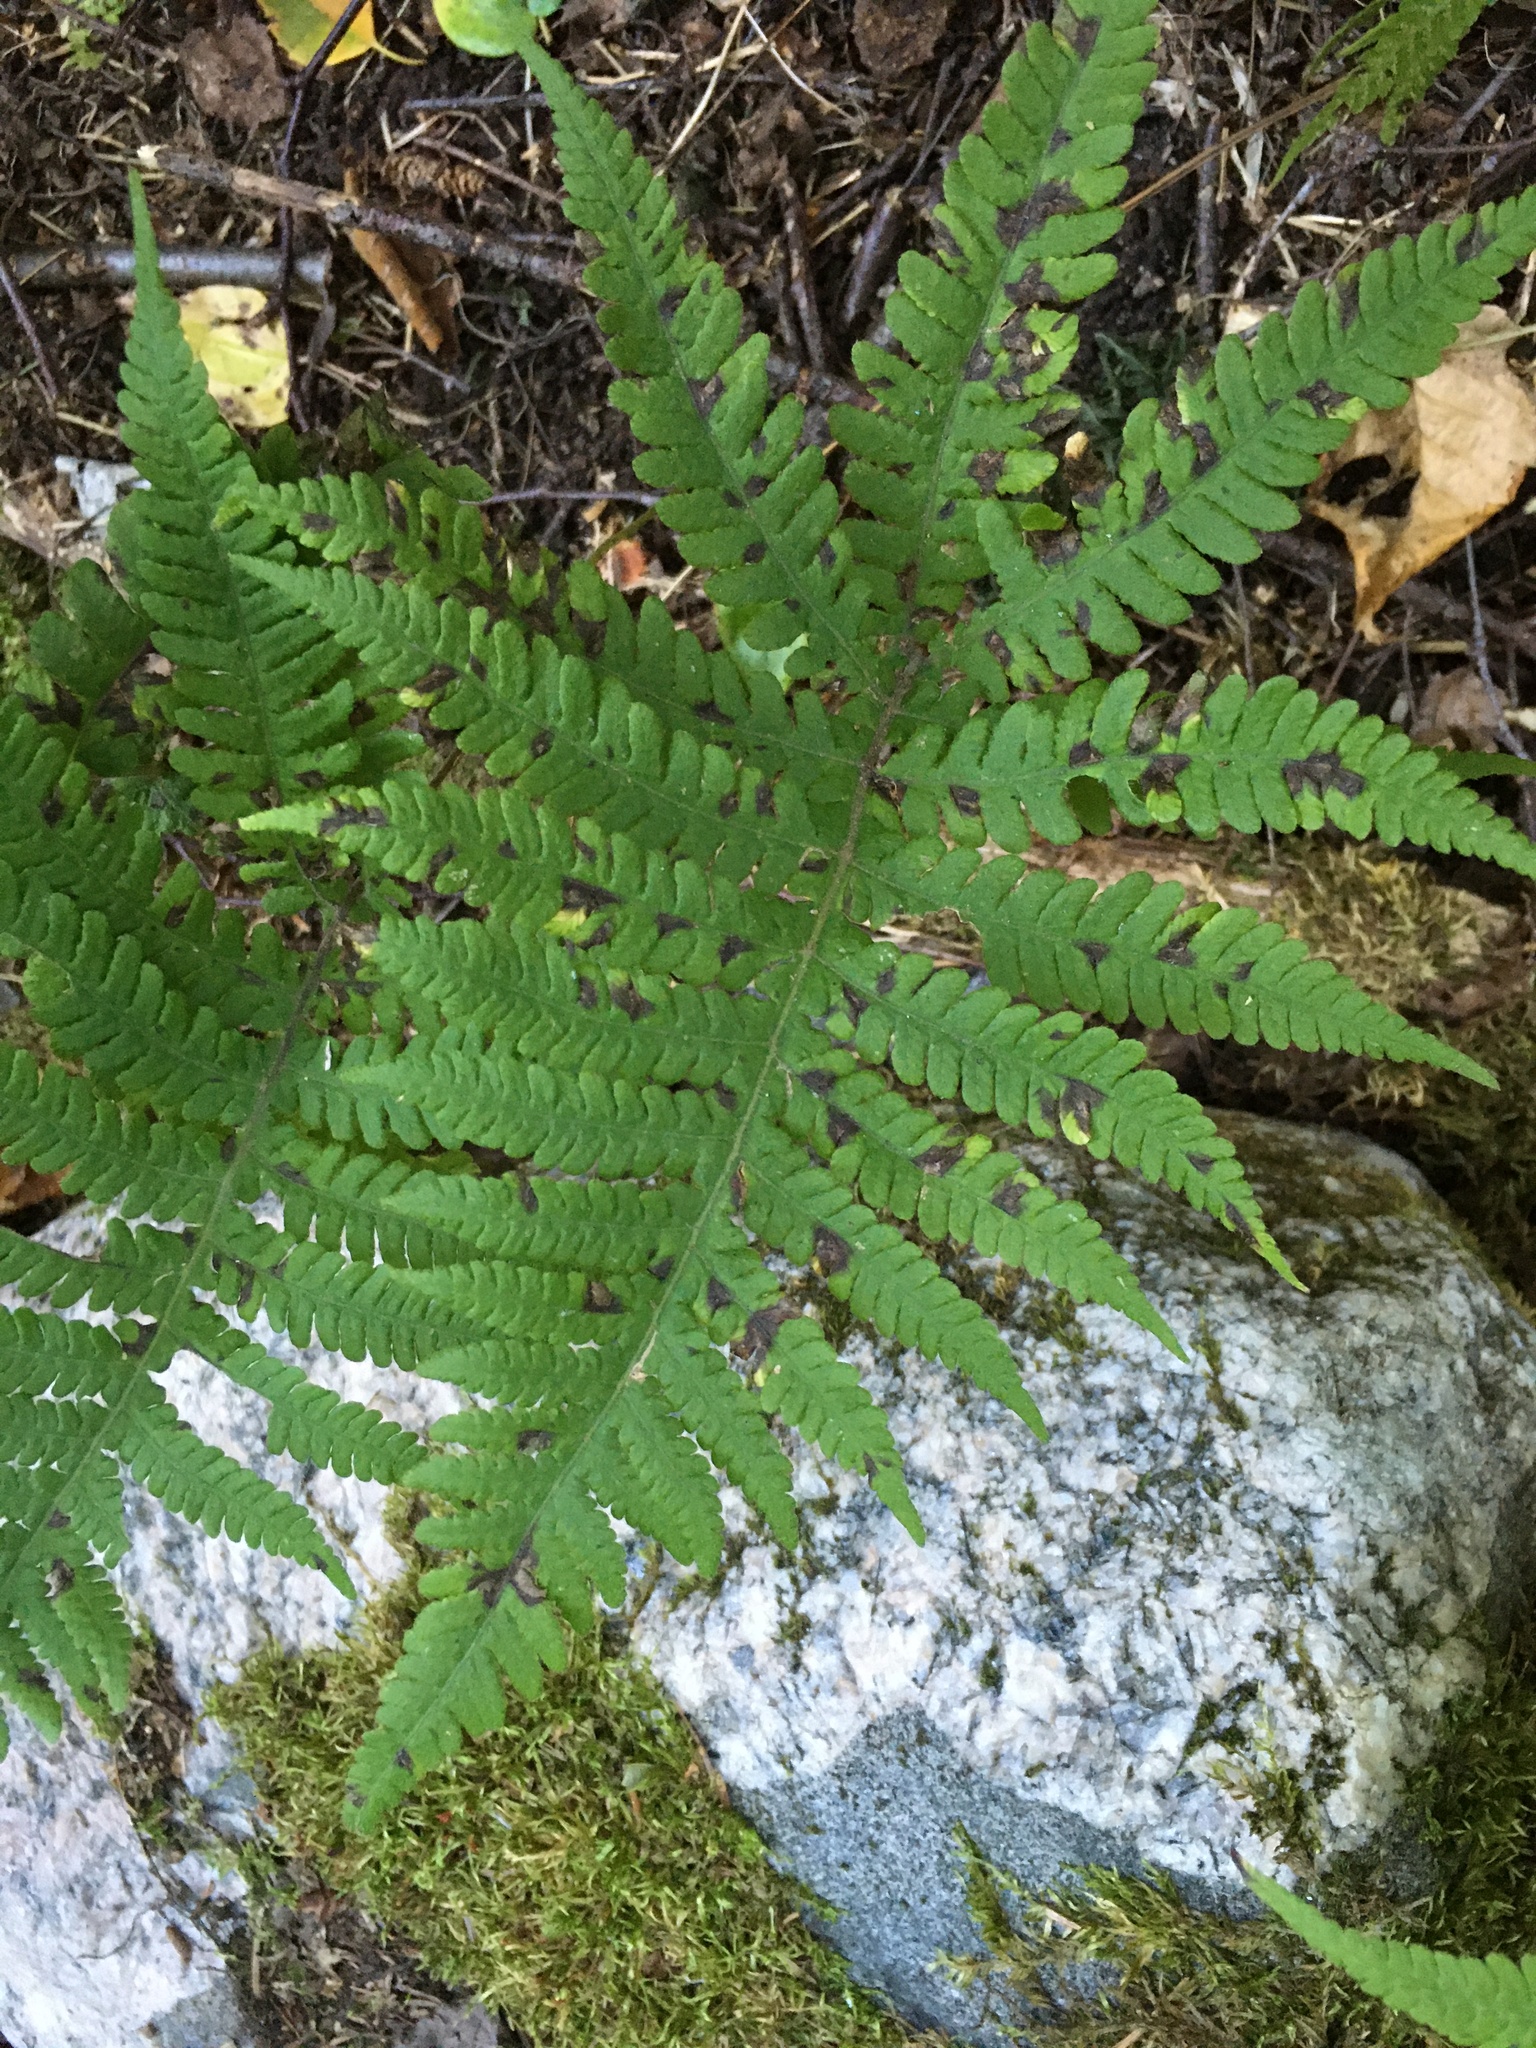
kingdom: Plantae
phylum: Tracheophyta
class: Polypodiopsida
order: Polypodiales
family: Thelypteridaceae
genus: Phegopteris
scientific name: Phegopteris connectilis
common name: Beech fern
